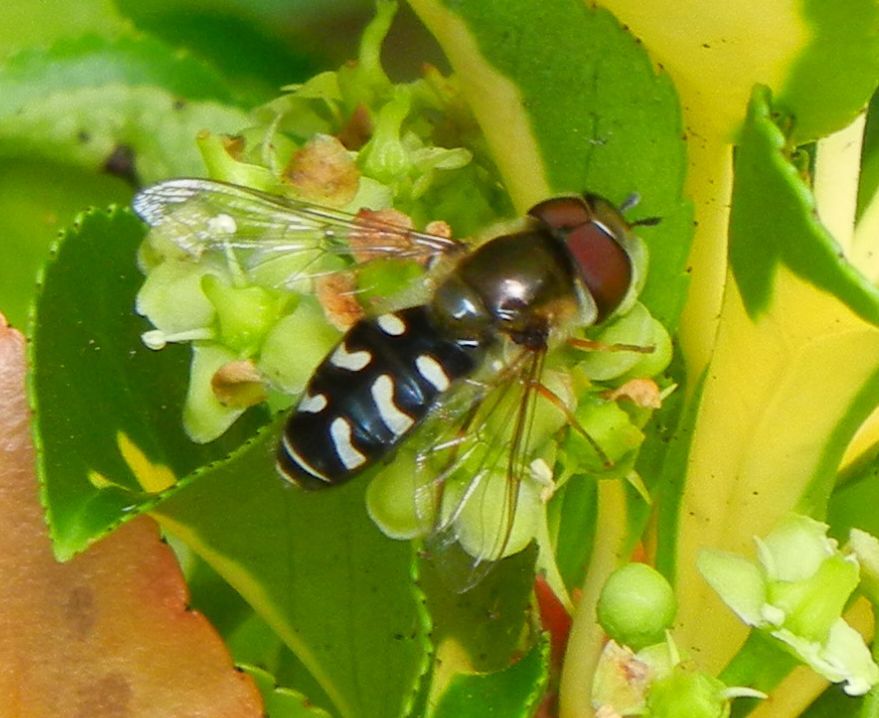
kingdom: Animalia
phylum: Arthropoda
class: Insecta
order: Diptera
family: Syrphidae
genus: Scaeva
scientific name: Scaeva pyrastri
